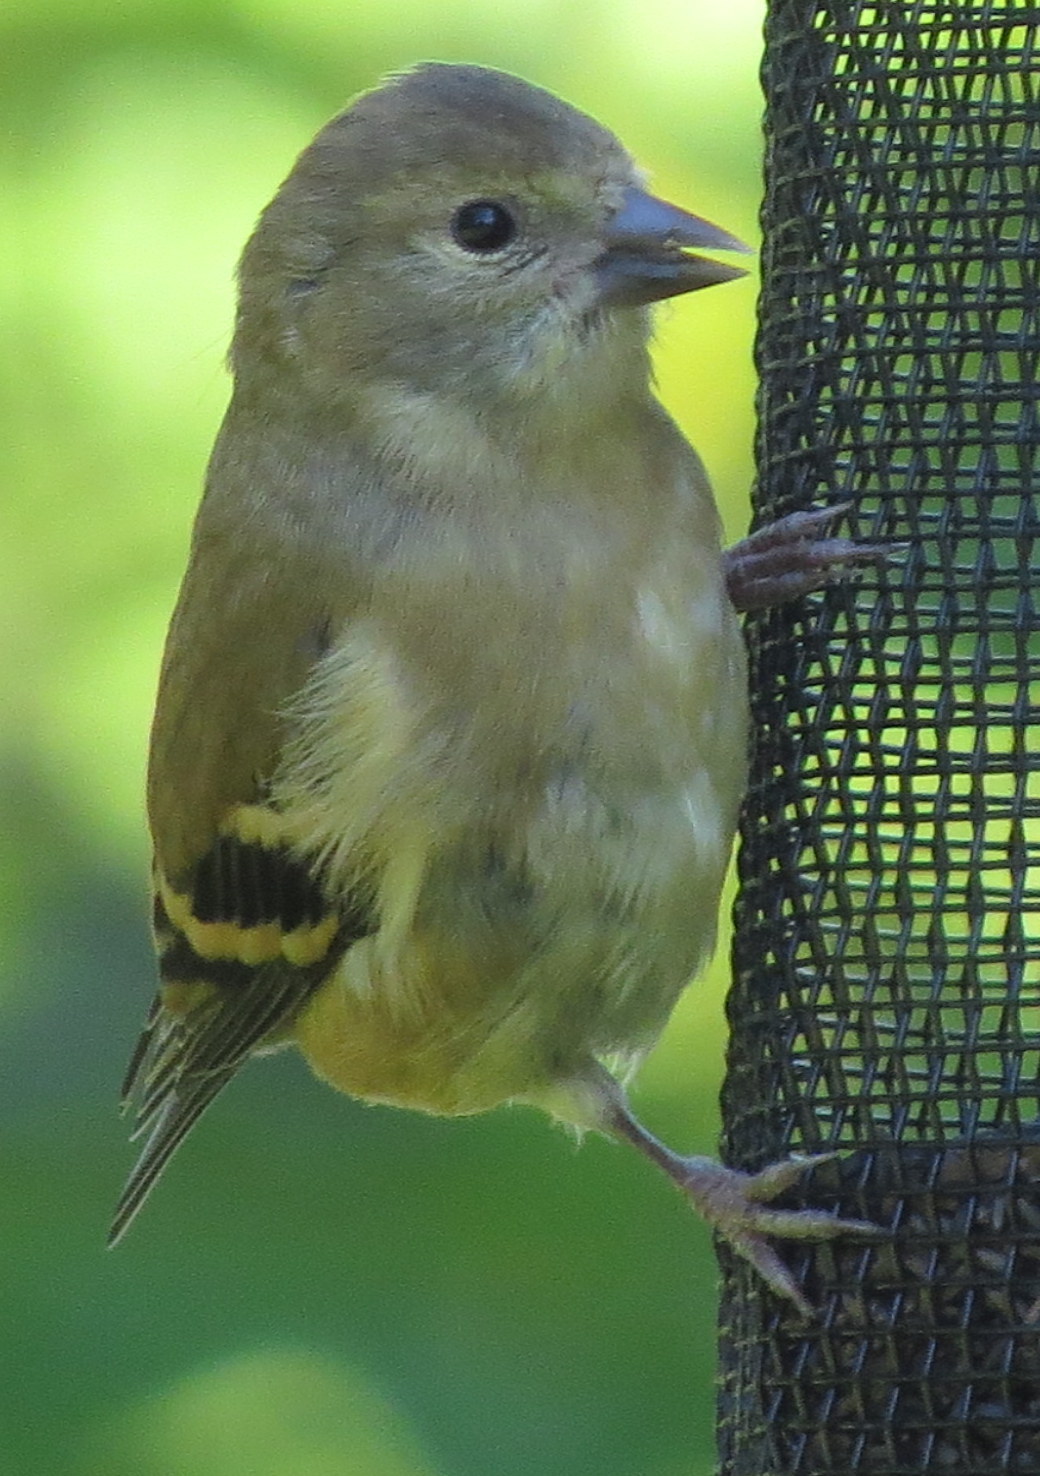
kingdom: Animalia
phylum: Chordata
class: Aves
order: Passeriformes
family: Fringillidae
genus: Spinus
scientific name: Spinus tristis
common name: American goldfinch
